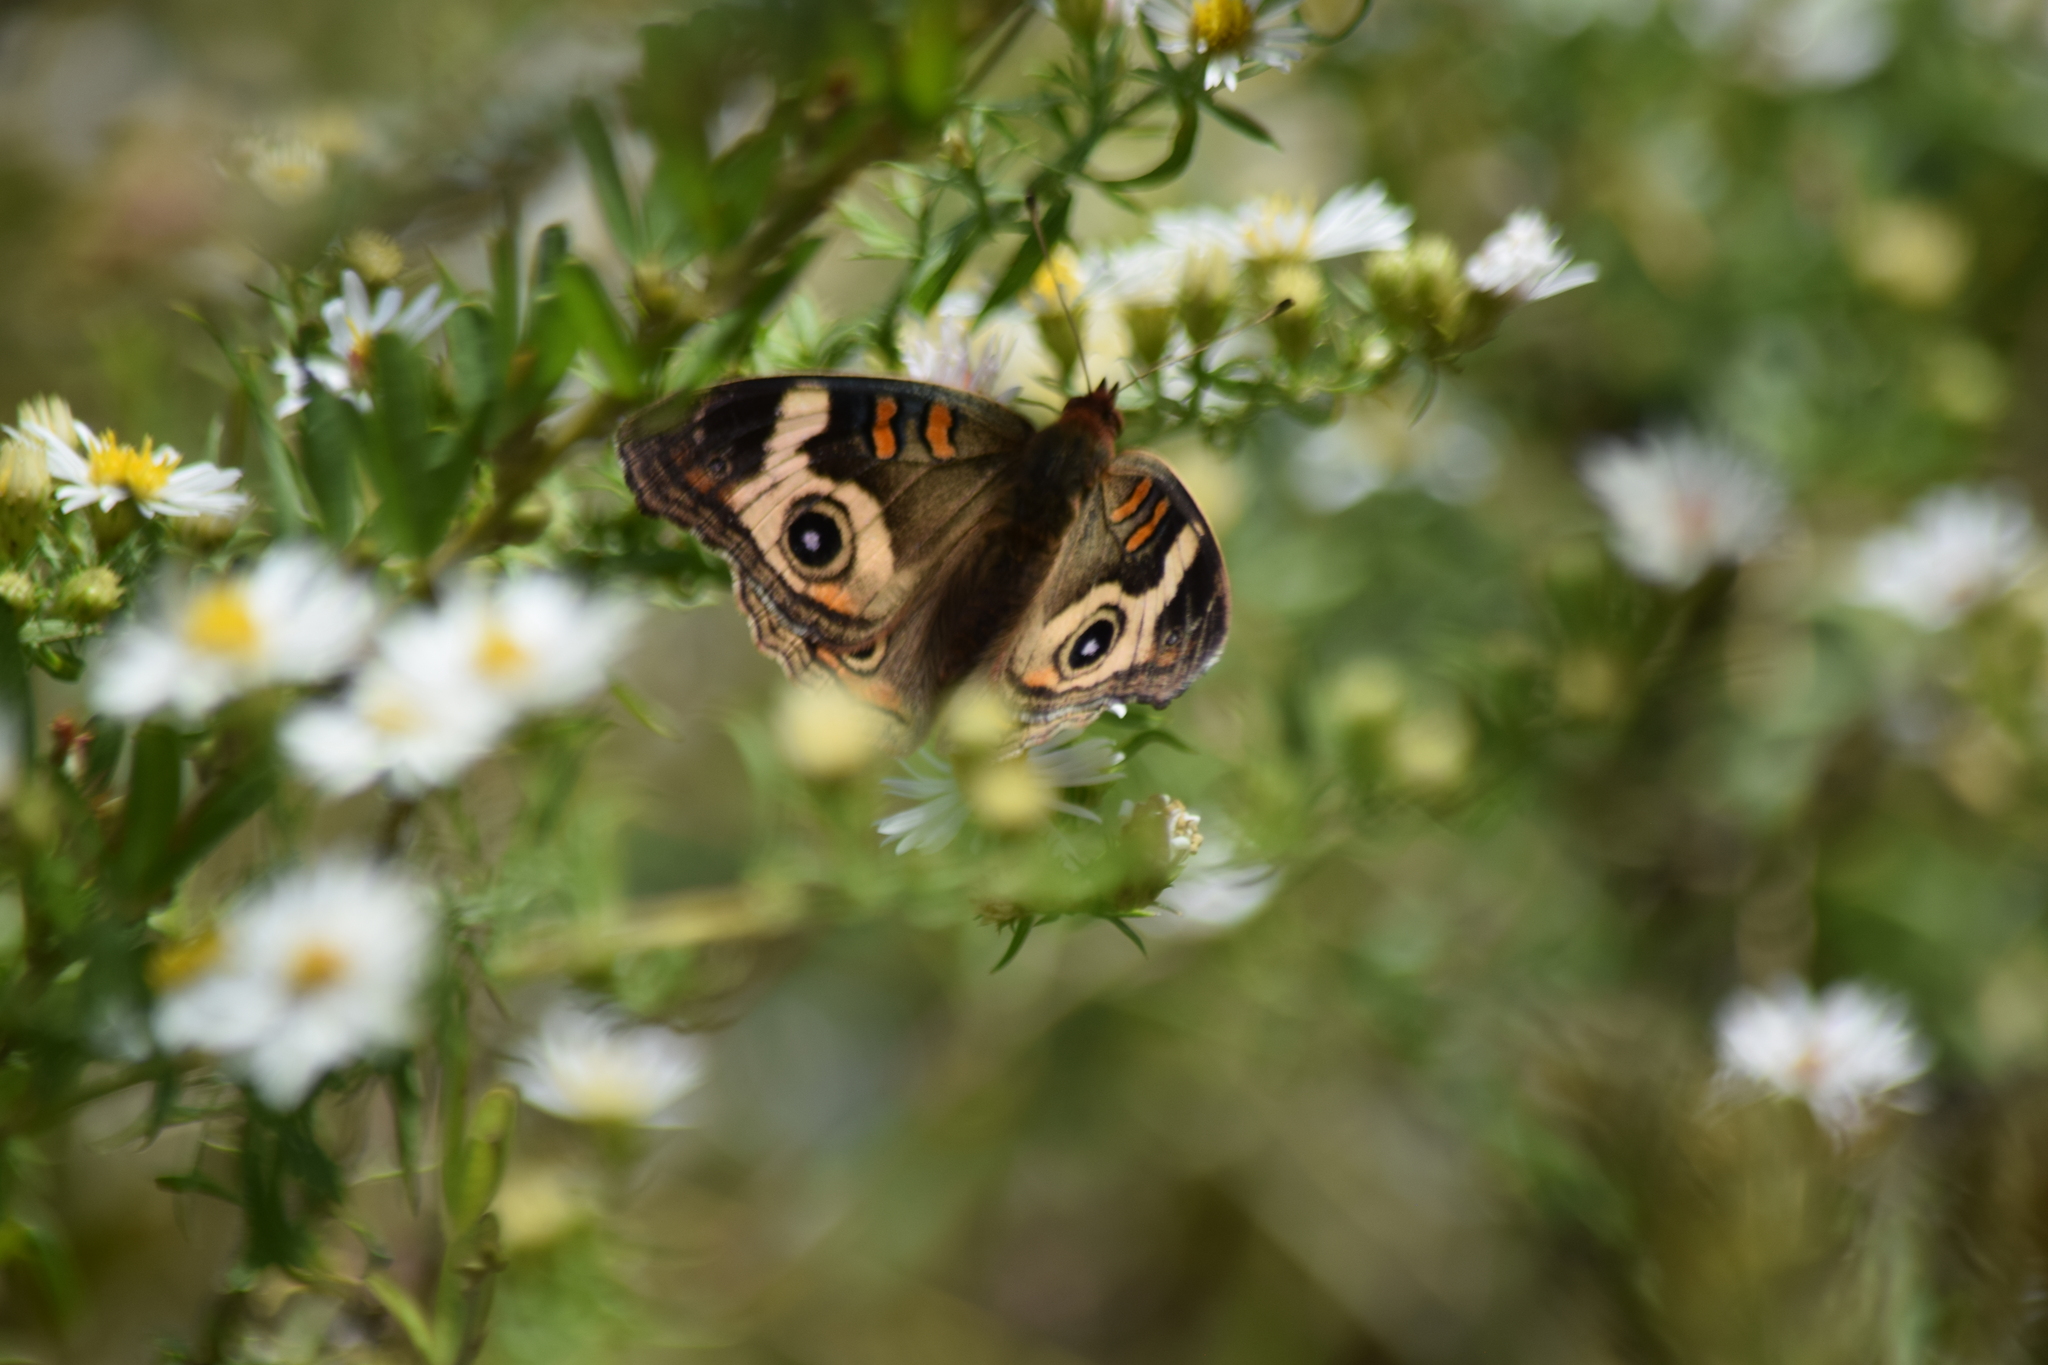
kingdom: Animalia
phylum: Arthropoda
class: Insecta
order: Lepidoptera
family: Nymphalidae
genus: Junonia
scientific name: Junonia coenia
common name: Common buckeye
